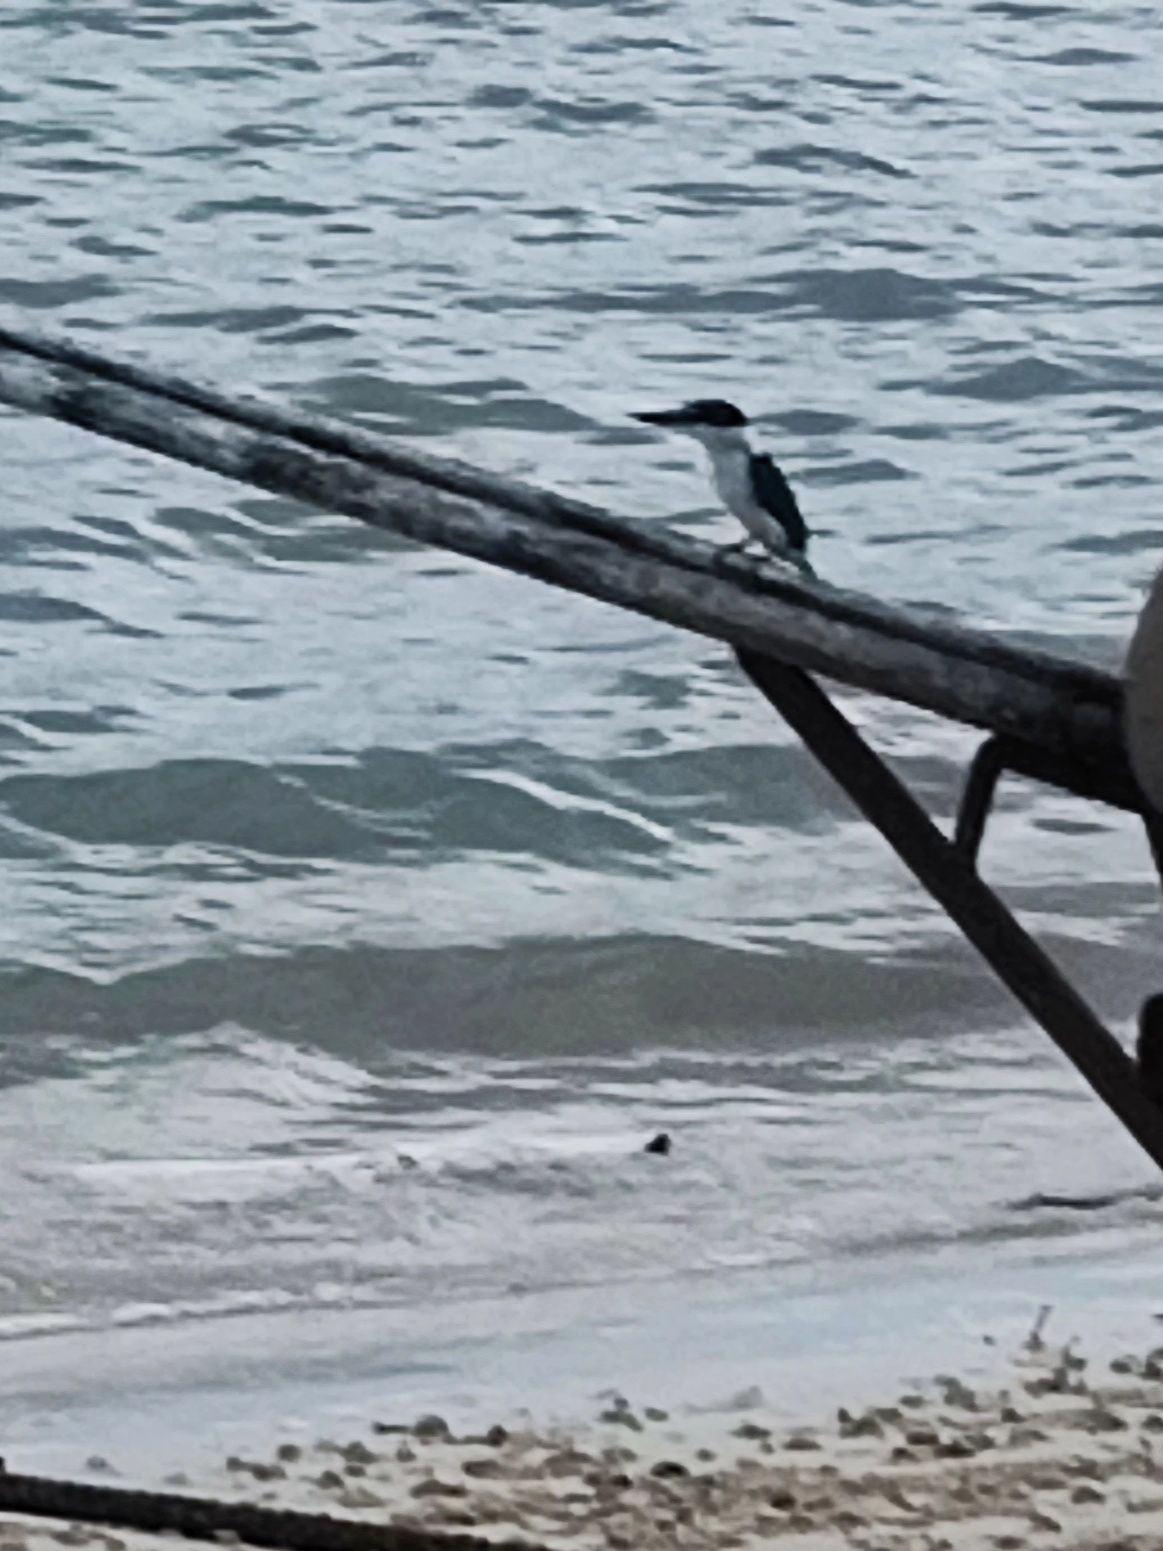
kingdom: Animalia
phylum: Chordata
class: Aves
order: Coraciiformes
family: Alcedinidae
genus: Todiramphus
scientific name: Todiramphus chloris
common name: Collared kingfisher
